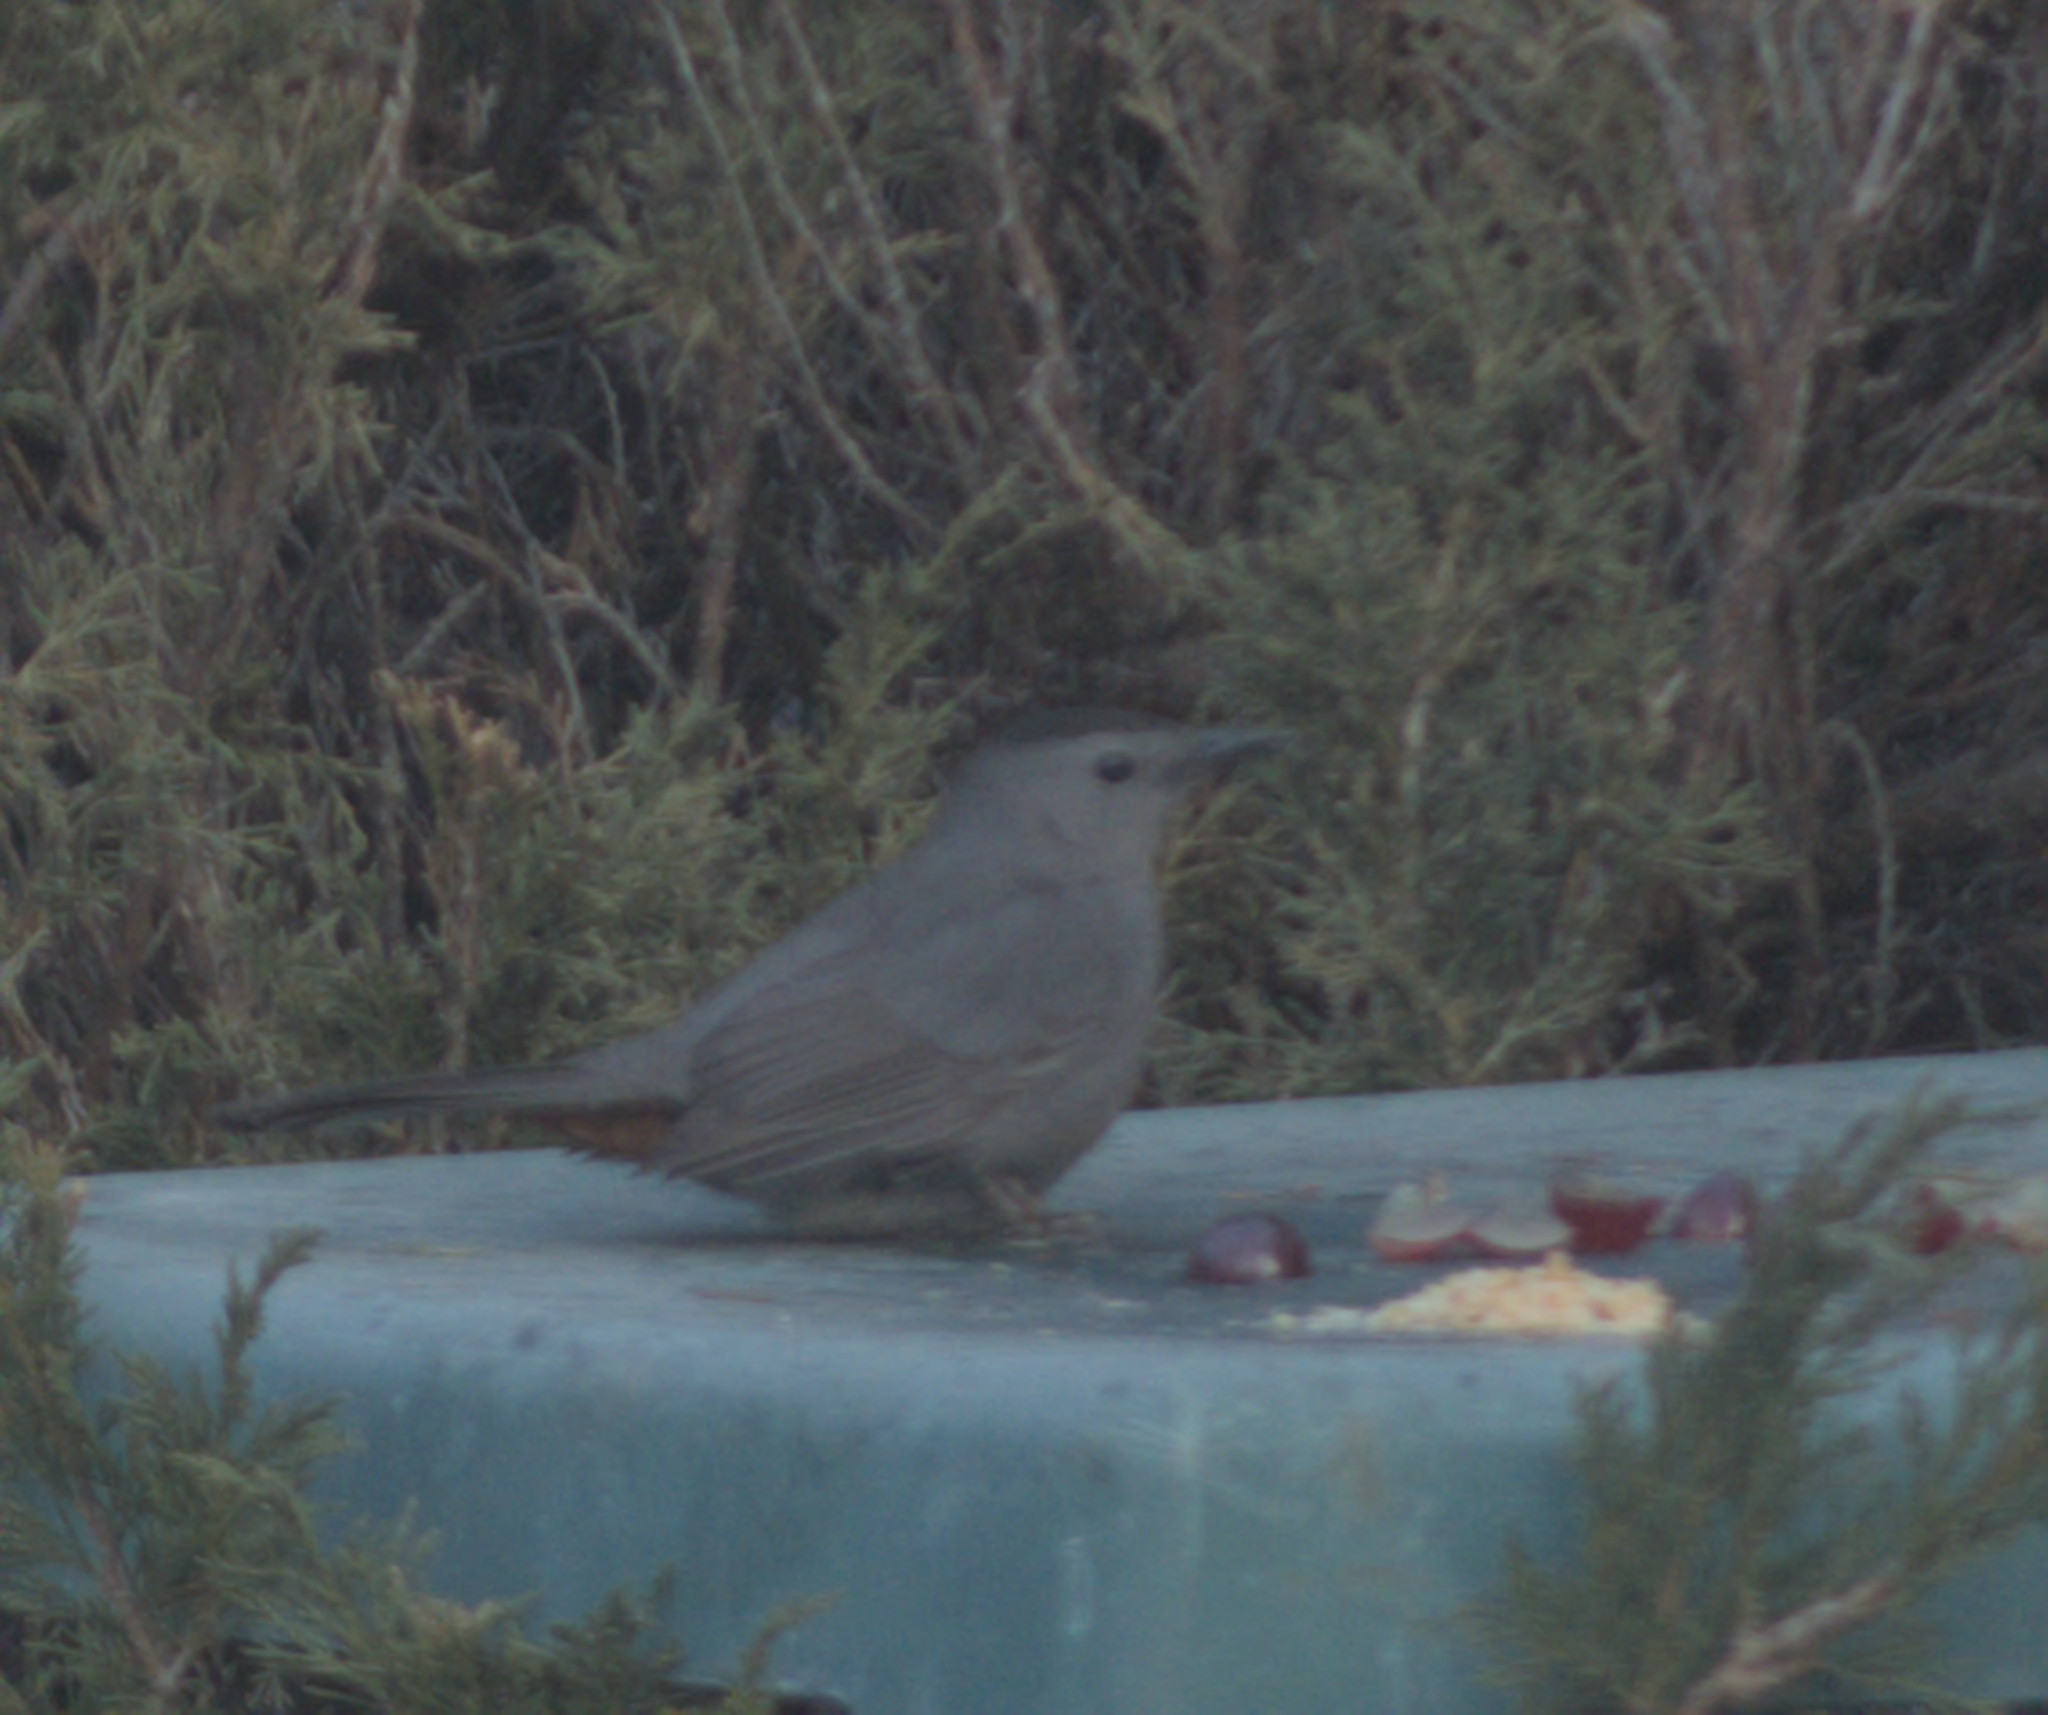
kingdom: Animalia
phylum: Chordata
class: Aves
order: Passeriformes
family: Mimidae
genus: Dumetella
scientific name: Dumetella carolinensis
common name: Gray catbird
